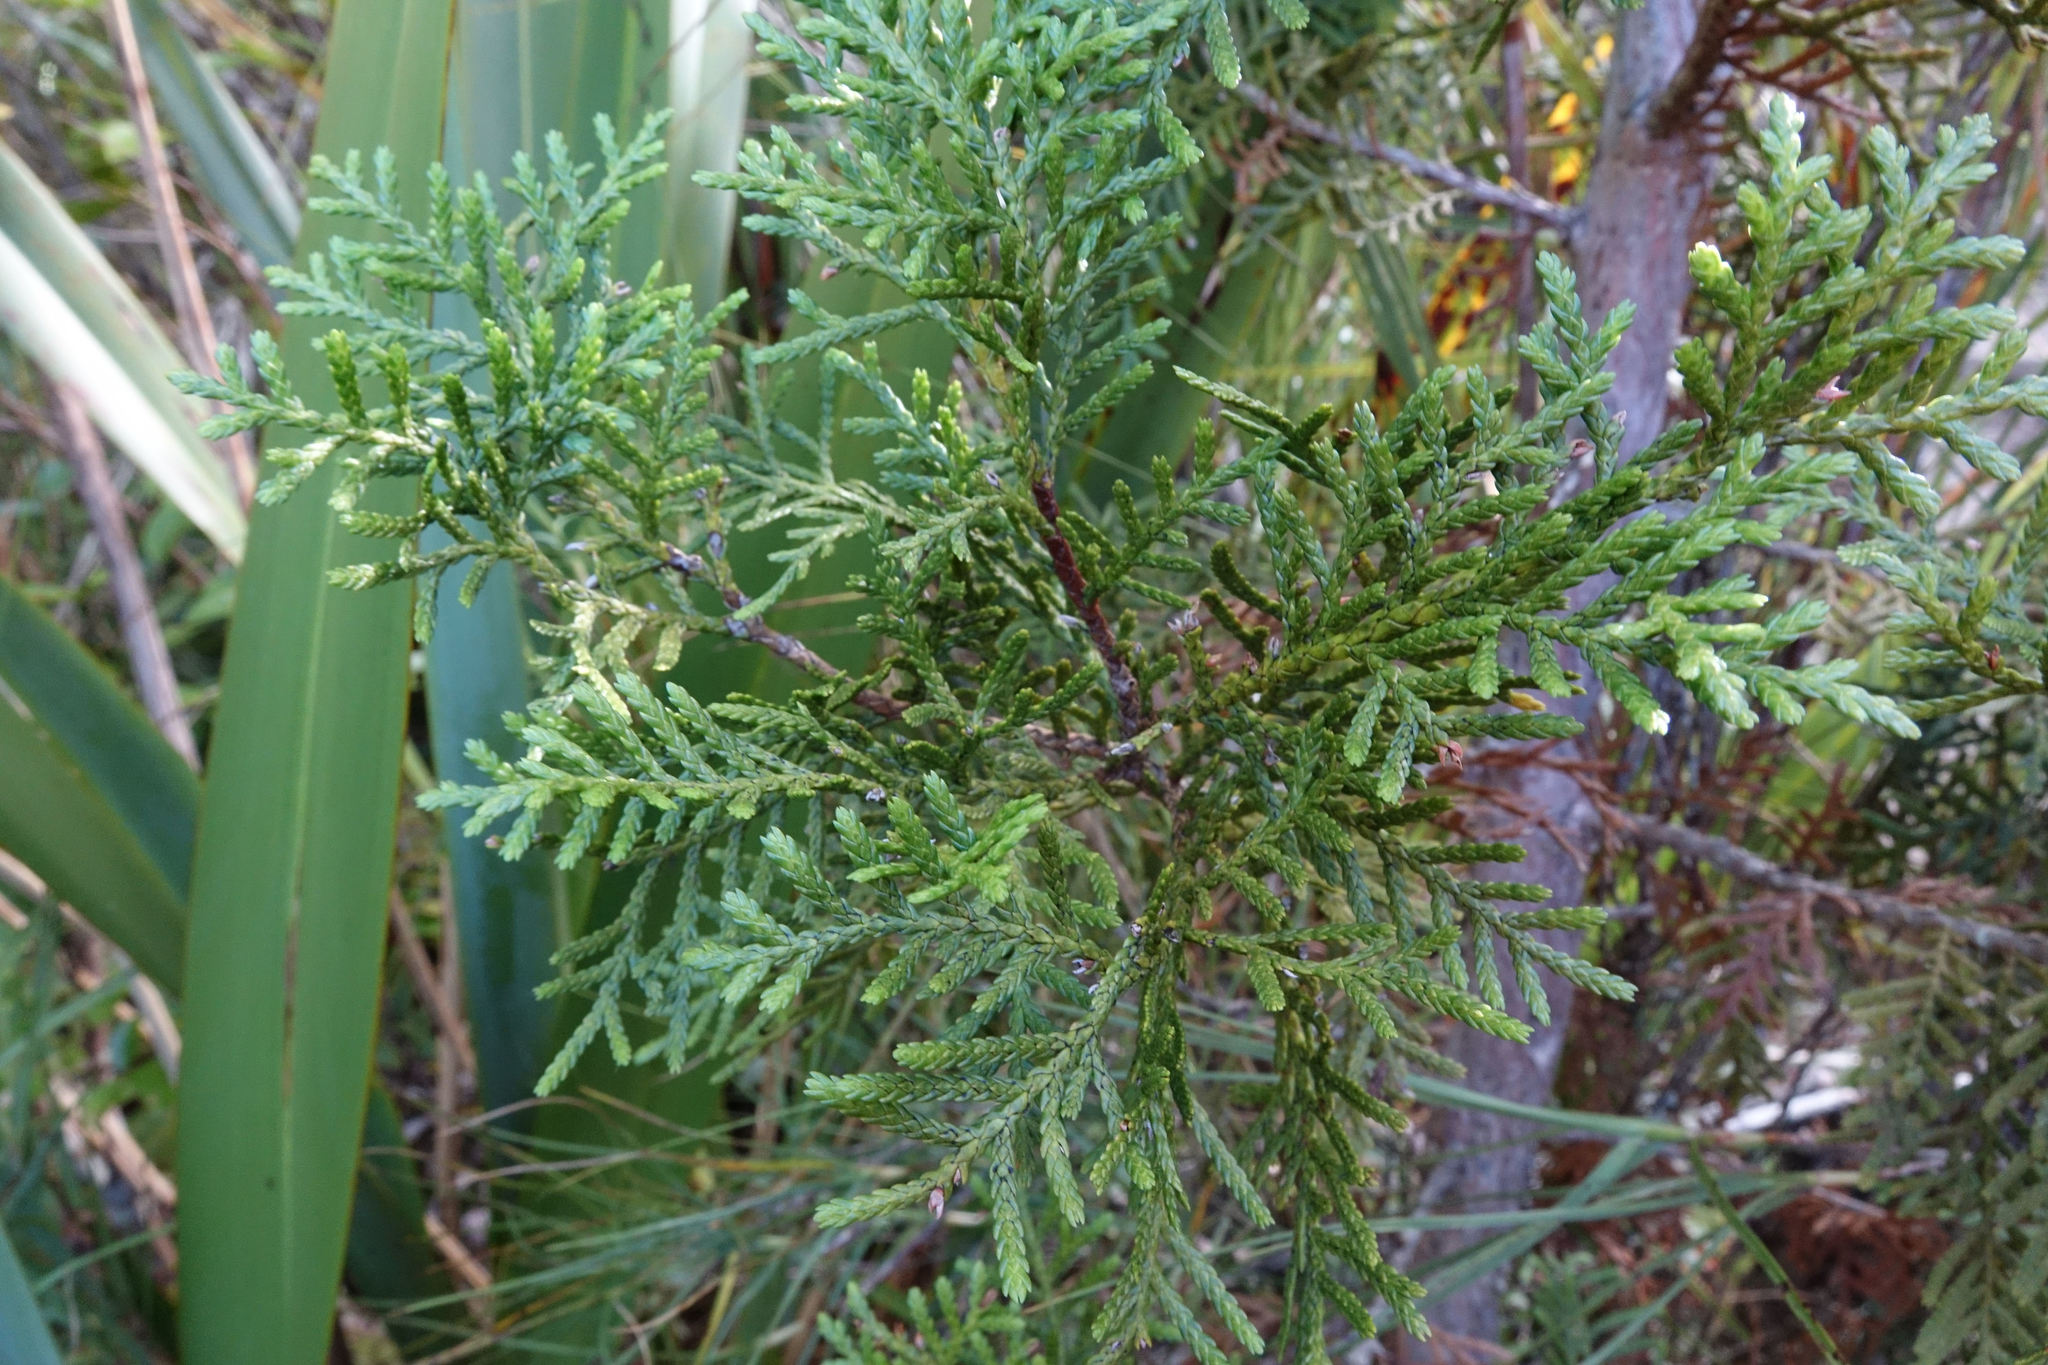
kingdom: Plantae
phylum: Tracheophyta
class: Pinopsida
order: Pinales
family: Cupressaceae
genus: Libocedrus
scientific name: Libocedrus bidwillii
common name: Cedar
